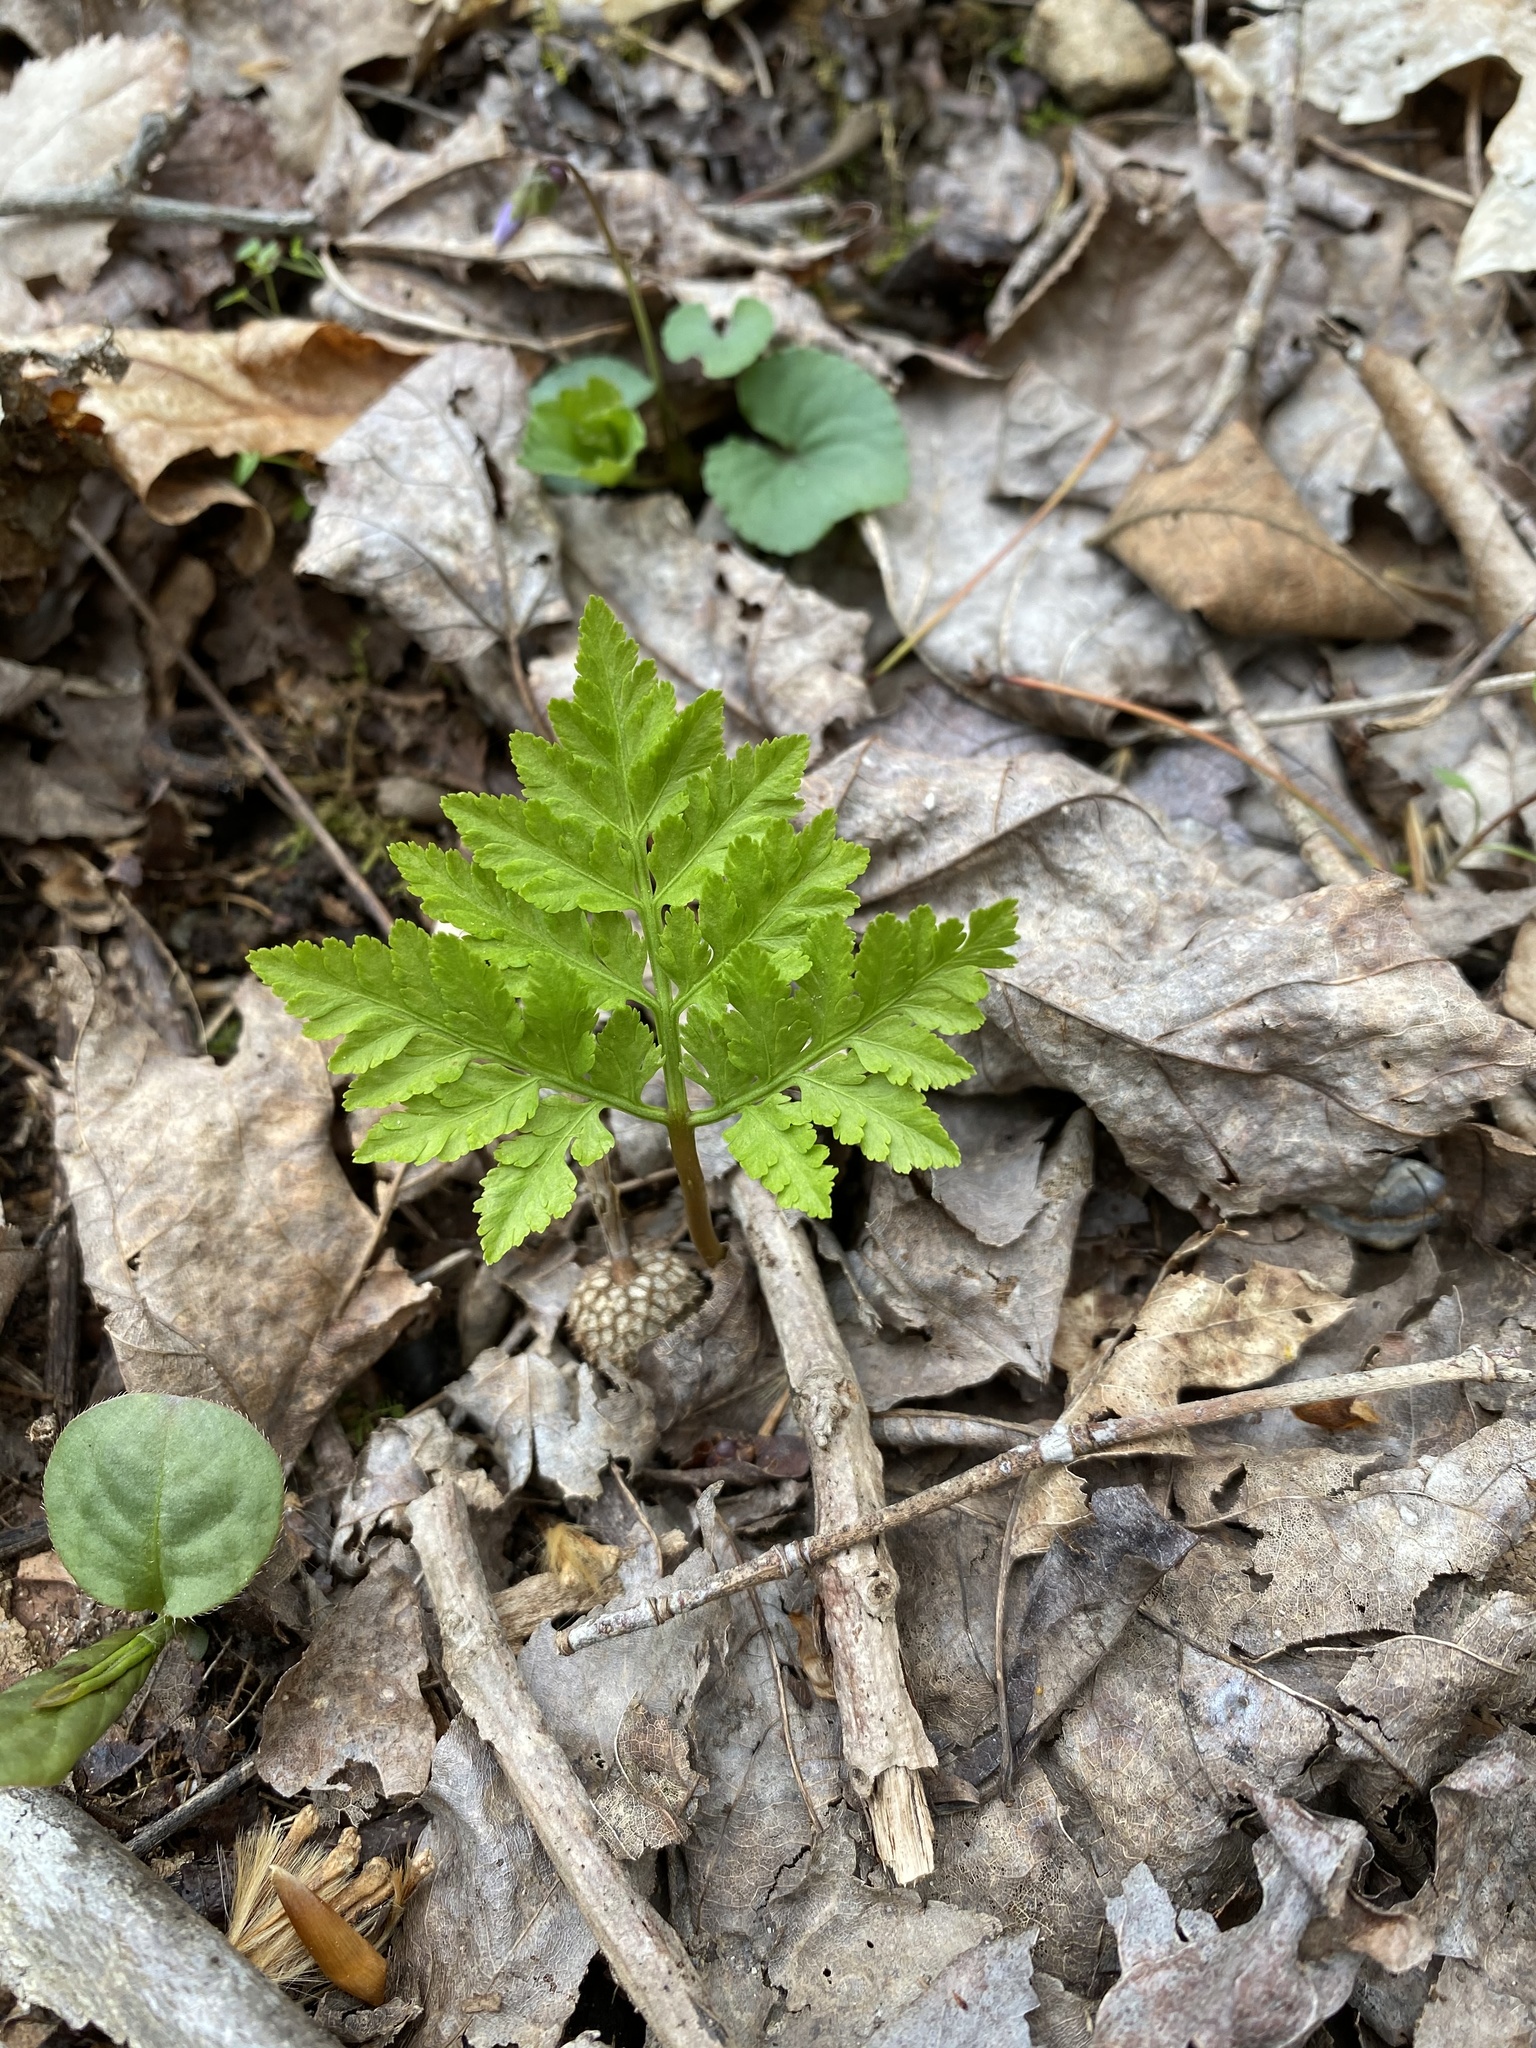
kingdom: Plantae
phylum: Tracheophyta
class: Polypodiopsida
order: Ophioglossales
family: Ophioglossaceae
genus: Botrypus
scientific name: Botrypus virginianus
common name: Common grapefern
